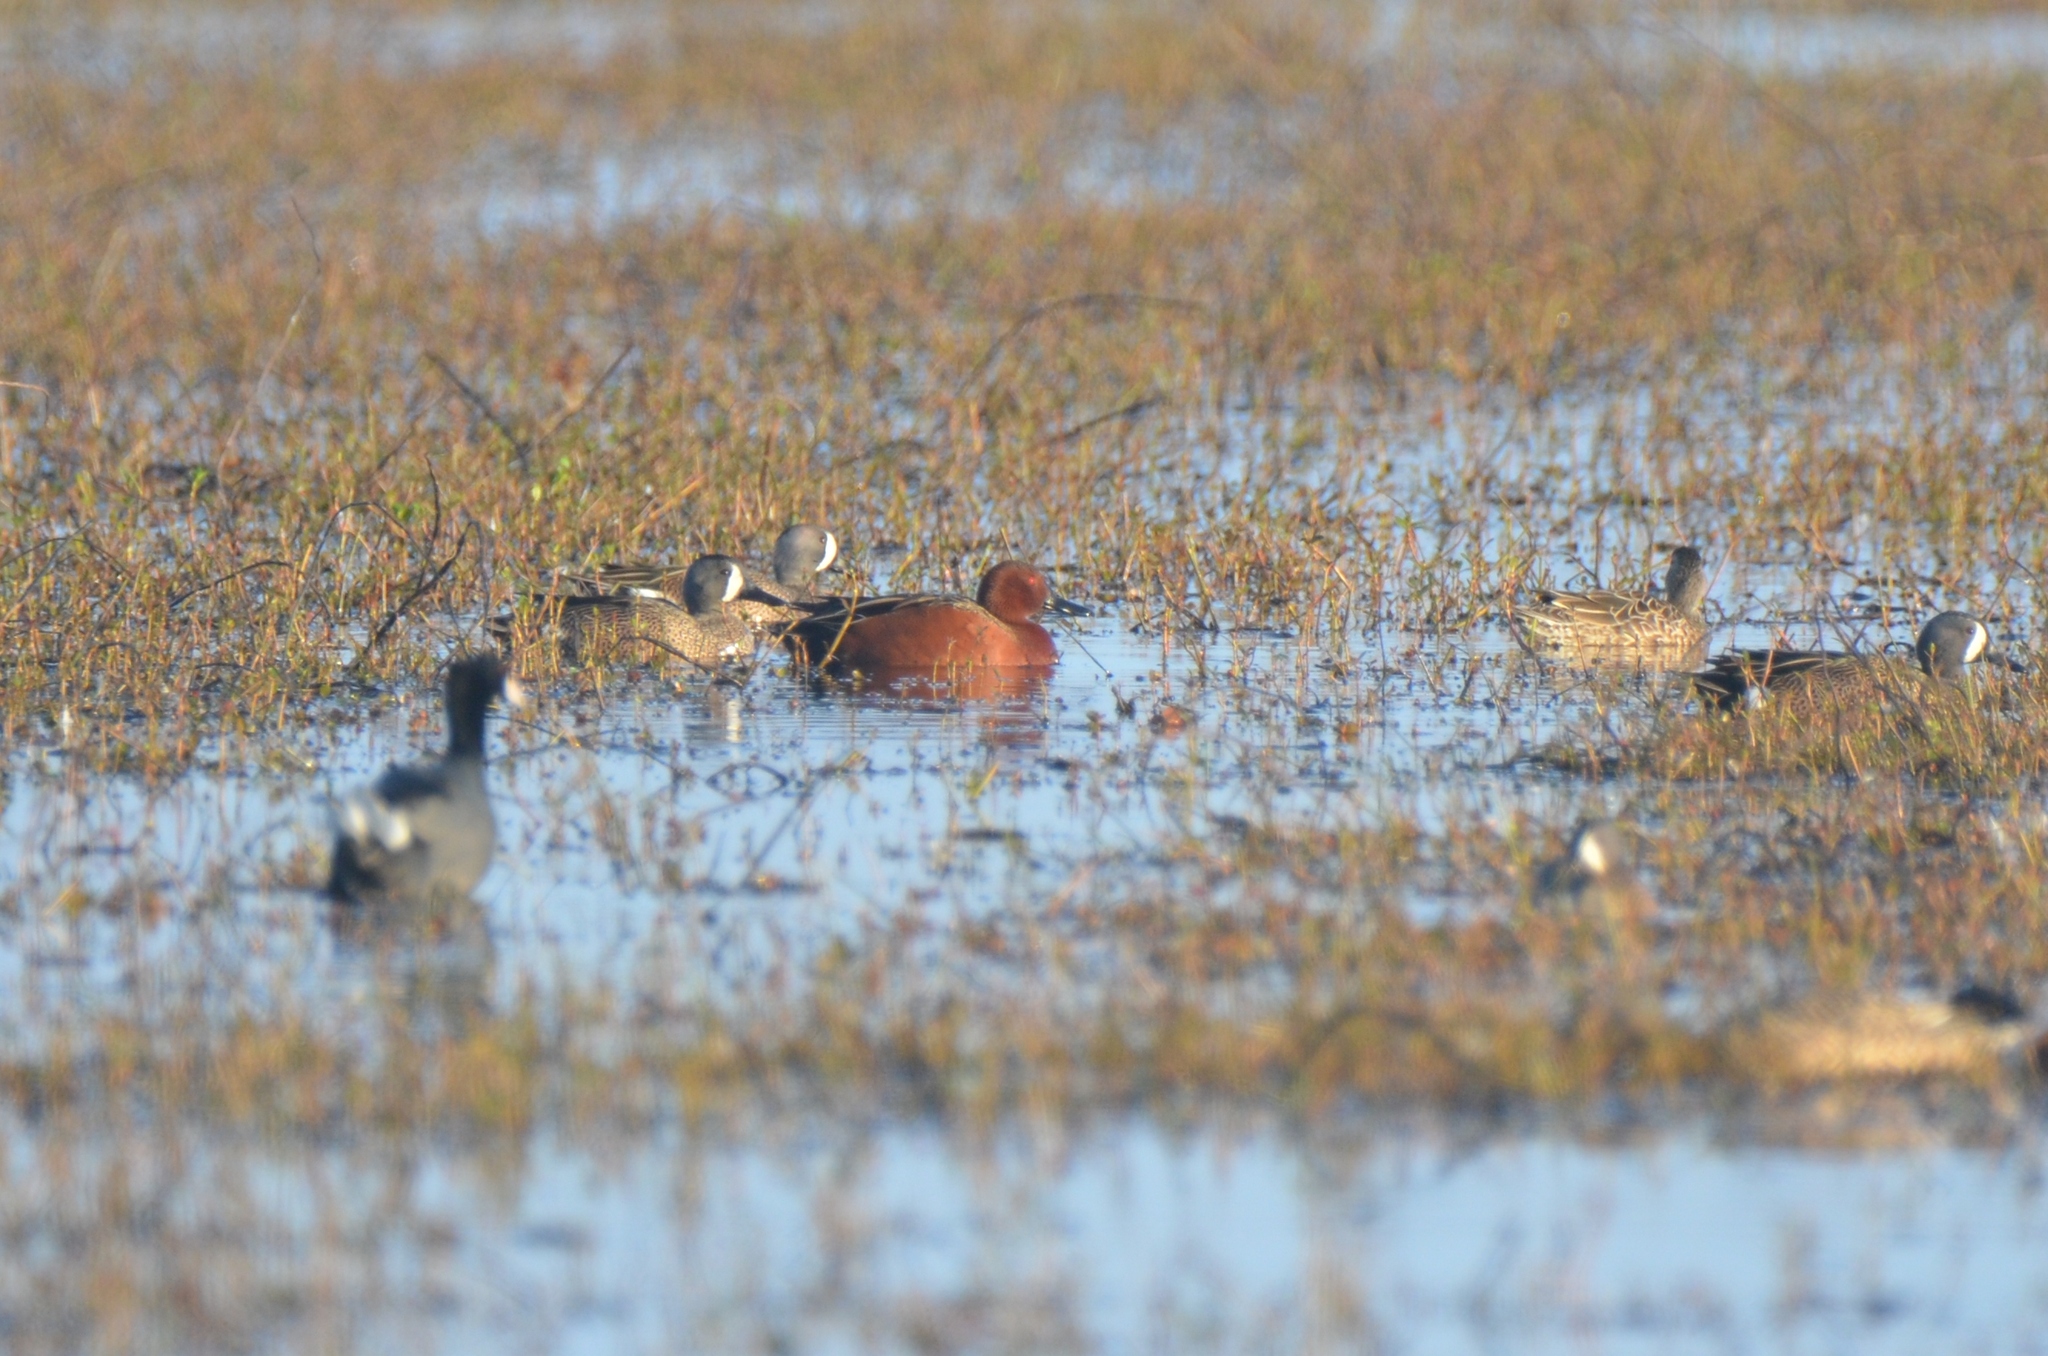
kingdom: Animalia
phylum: Chordata
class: Aves
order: Anseriformes
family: Anatidae
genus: Spatula
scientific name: Spatula cyanoptera
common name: Cinnamon teal
